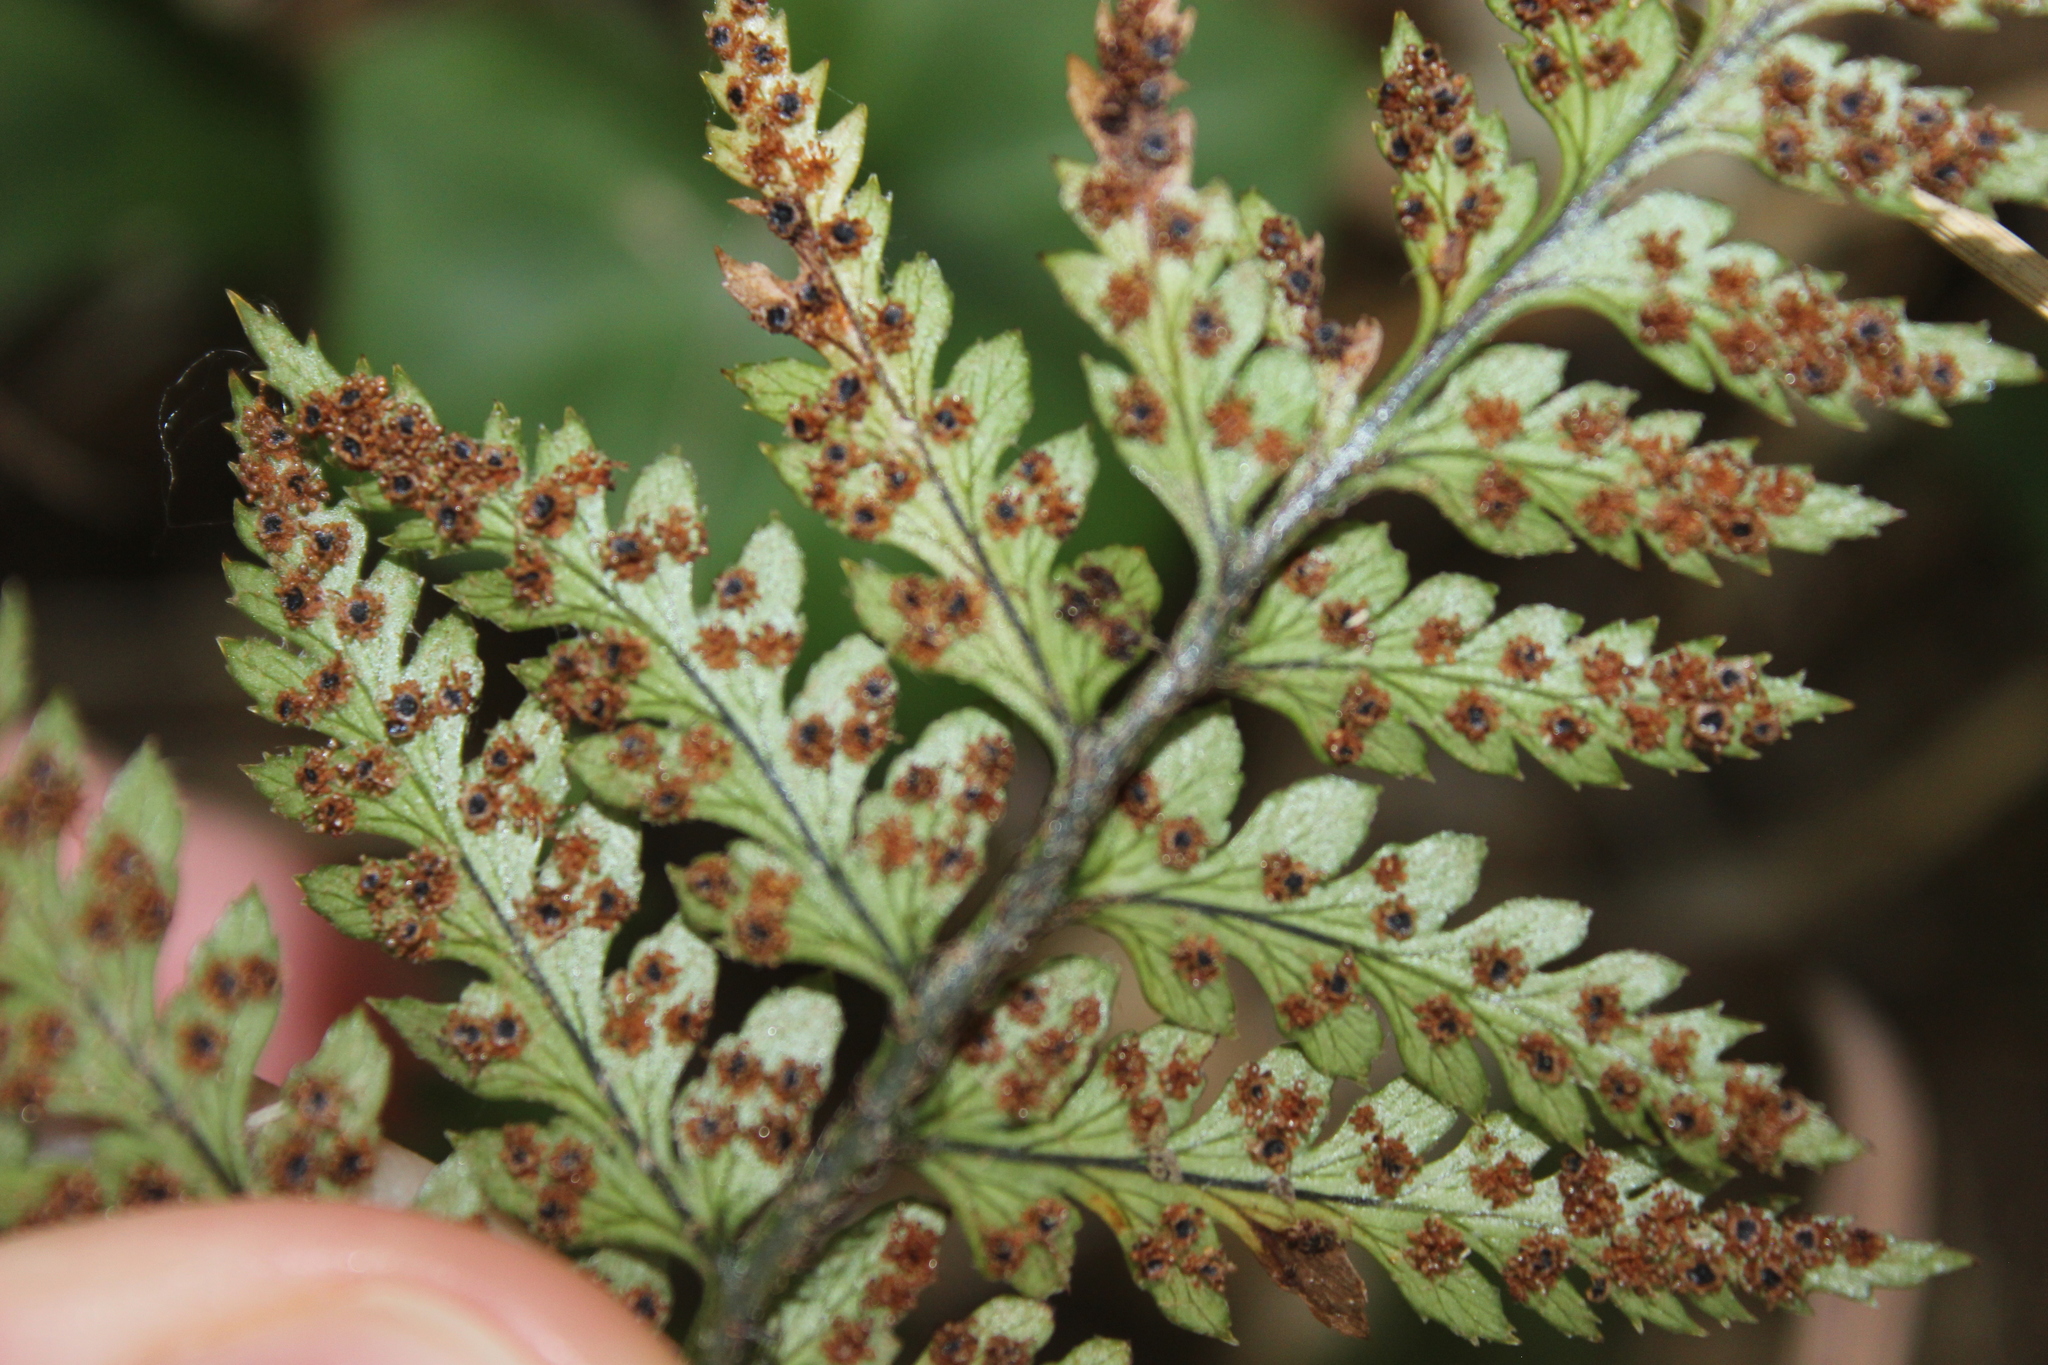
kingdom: Plantae
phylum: Tracheophyta
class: Polypodiopsida
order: Polypodiales
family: Dryopteridaceae
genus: Polystichum
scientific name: Polystichum neozelandicum
